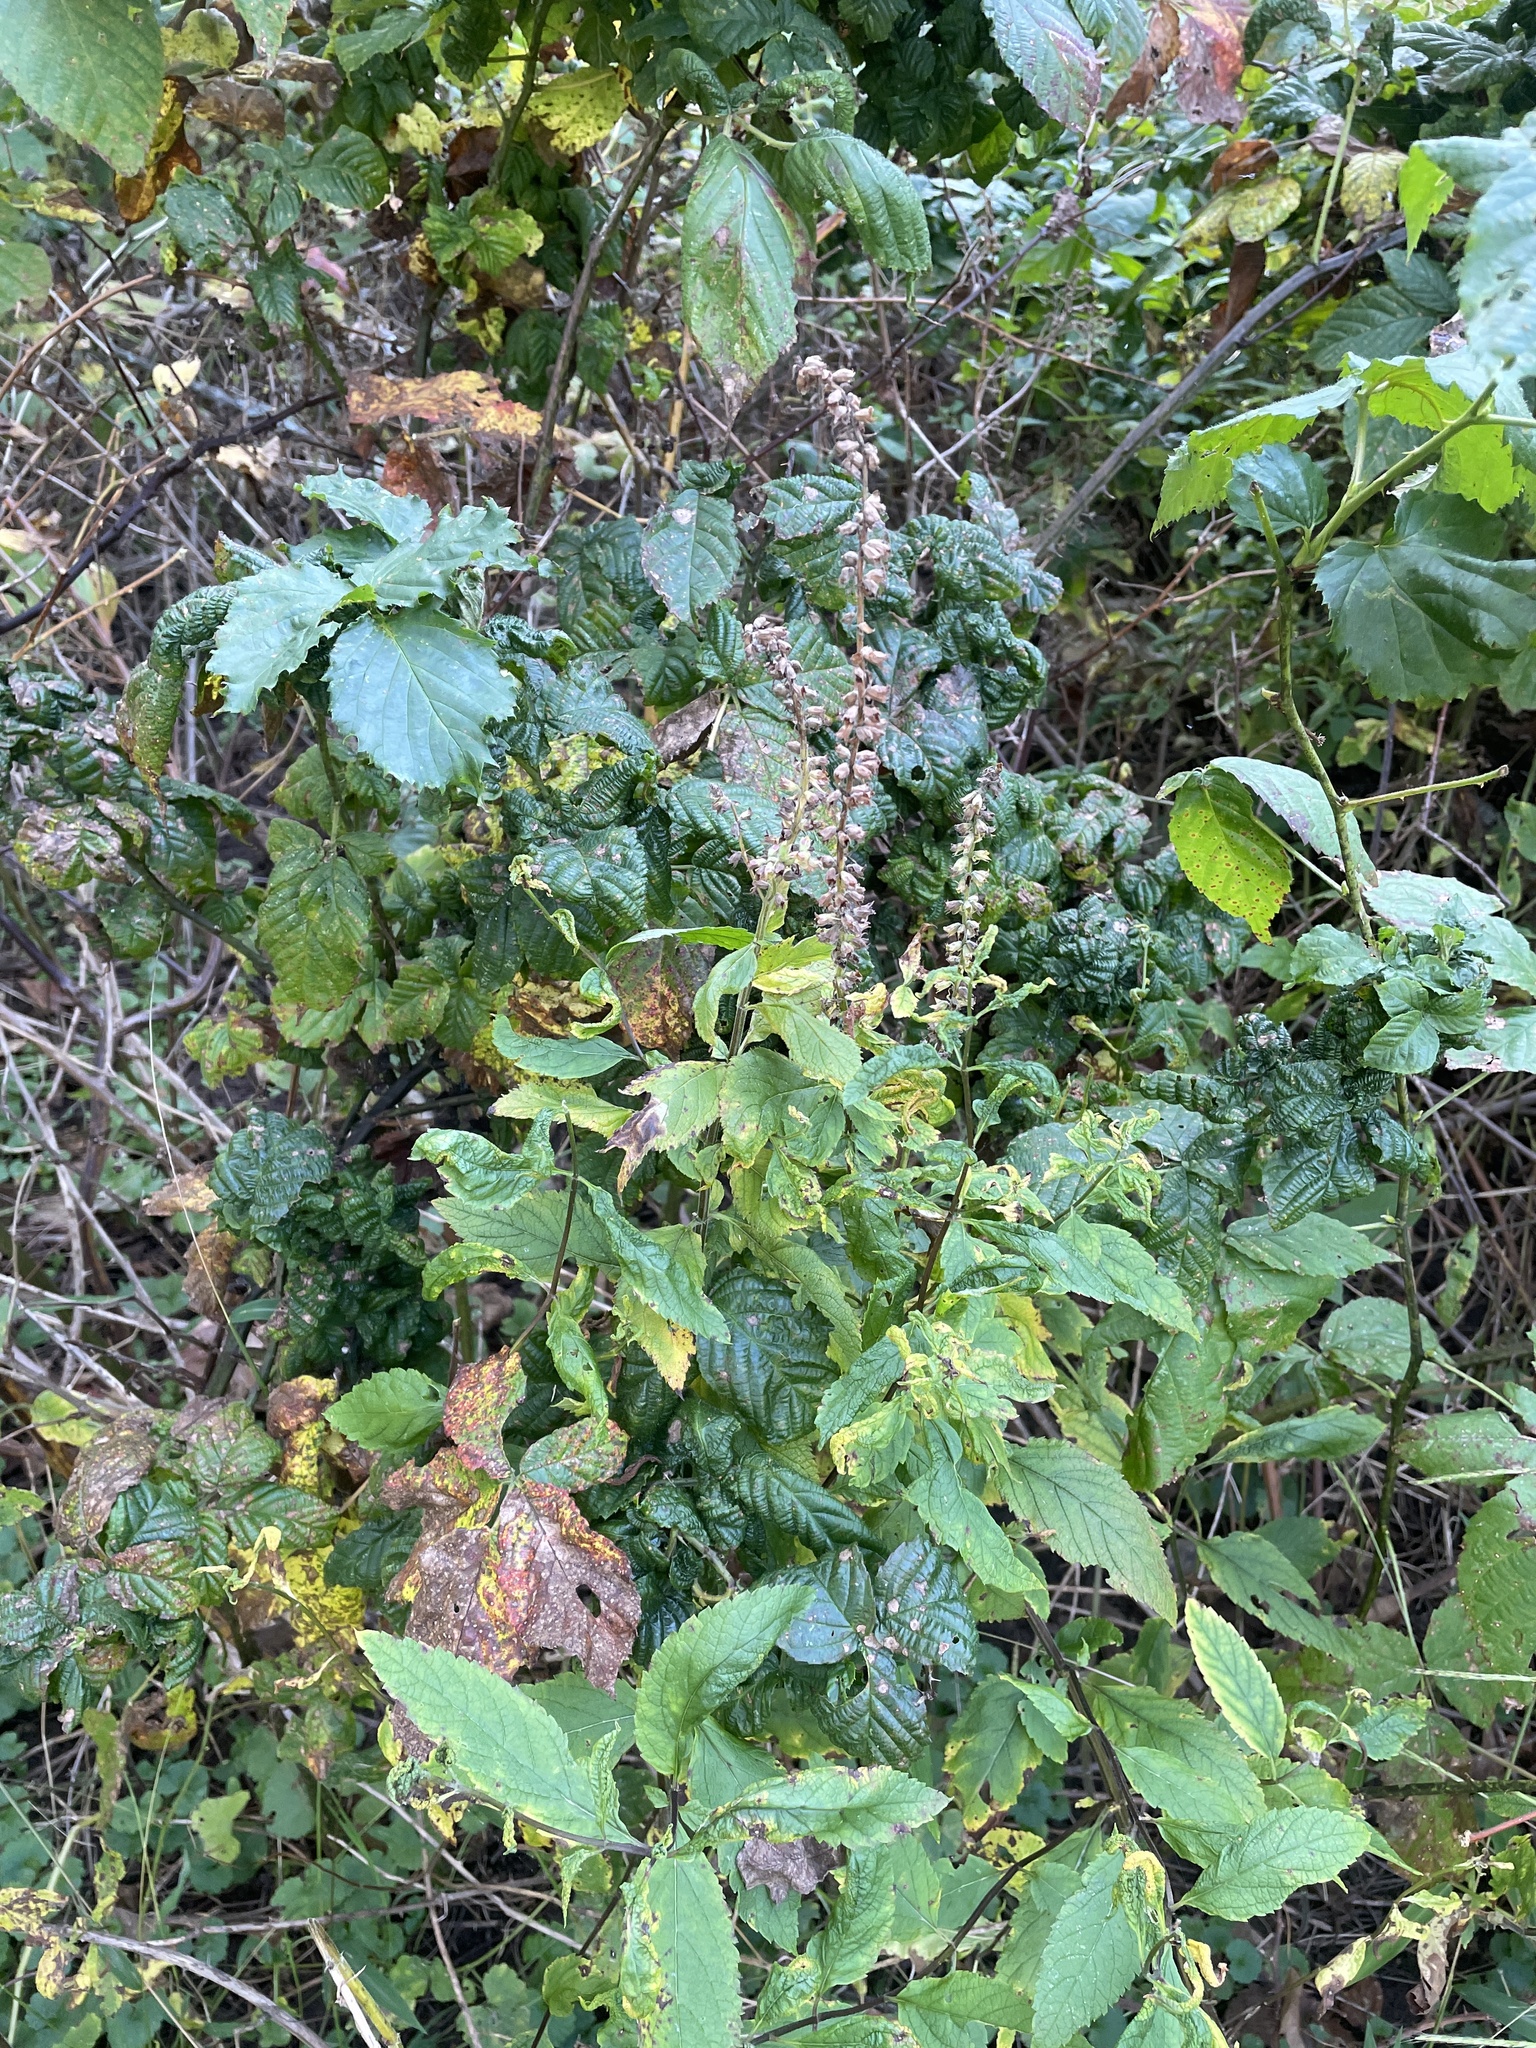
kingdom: Plantae
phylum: Tracheophyta
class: Magnoliopsida
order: Lamiales
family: Lamiaceae
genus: Teucrium
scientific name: Teucrium canadense
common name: American germander
